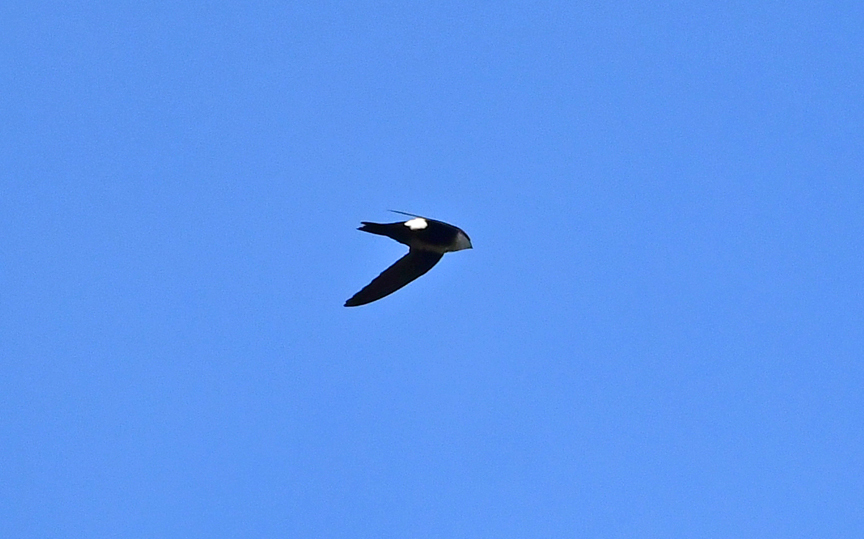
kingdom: Animalia
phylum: Chordata
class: Aves
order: Apodiformes
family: Apodidae
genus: Aeronautes
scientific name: Aeronautes saxatalis
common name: White-throated swift
